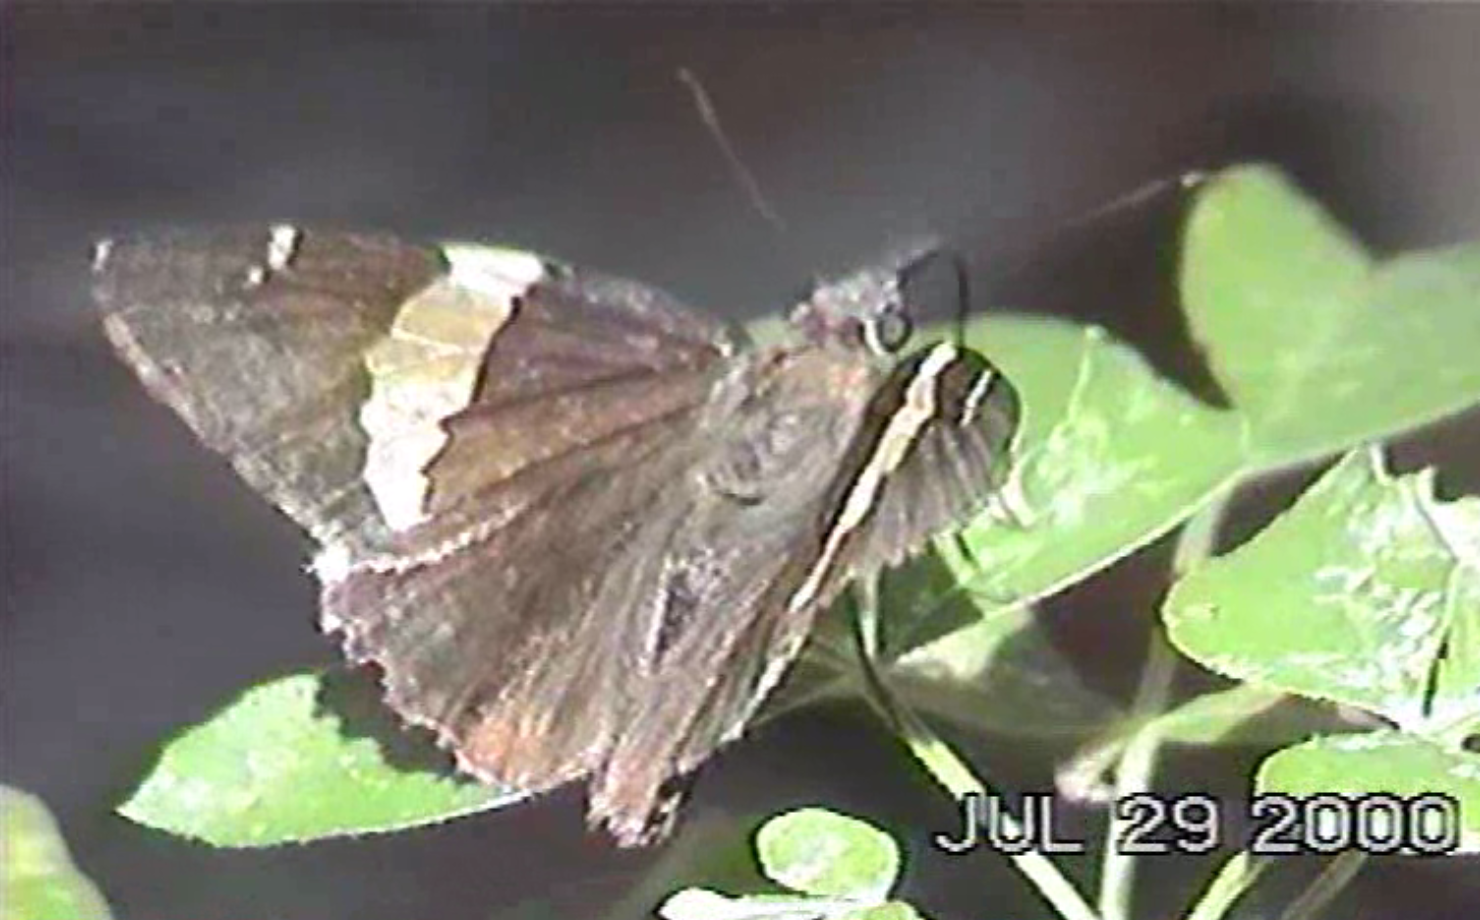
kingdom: Animalia
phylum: Arthropoda
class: Arachnida
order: Scorpiones
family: Bothriuridae
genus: Telegonus
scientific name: Telegonus cellus
